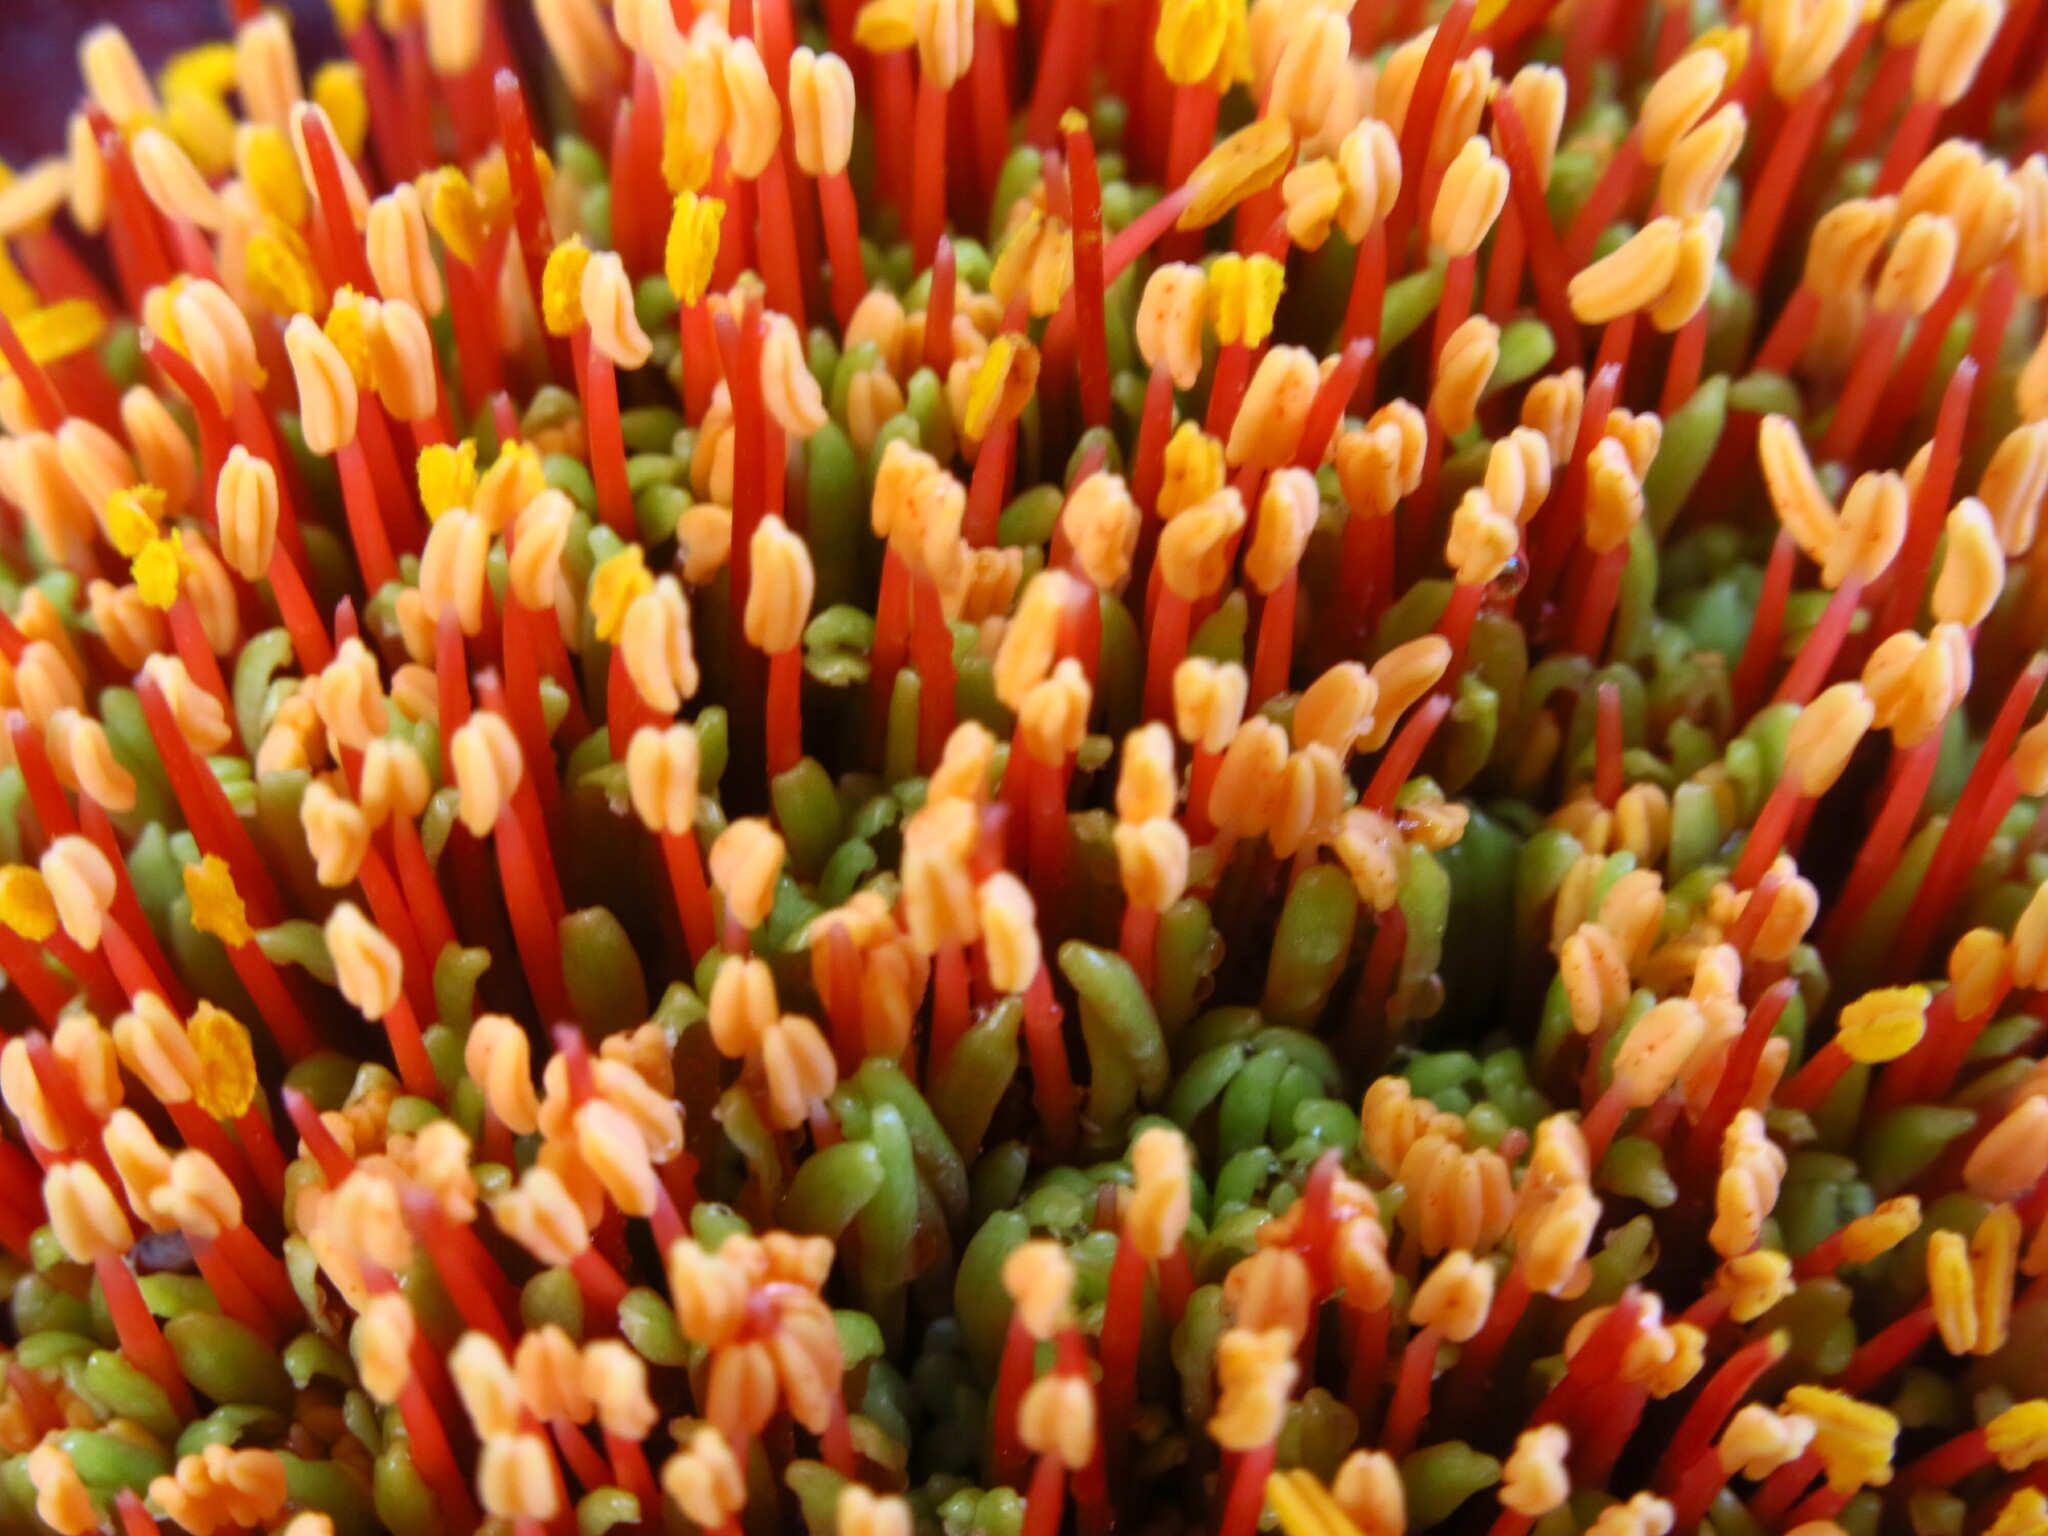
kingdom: Plantae
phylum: Tracheophyta
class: Liliopsida
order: Asparagales
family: Amaryllidaceae
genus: Scadoxus
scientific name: Scadoxus puniceus
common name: Royal-paintbrush
